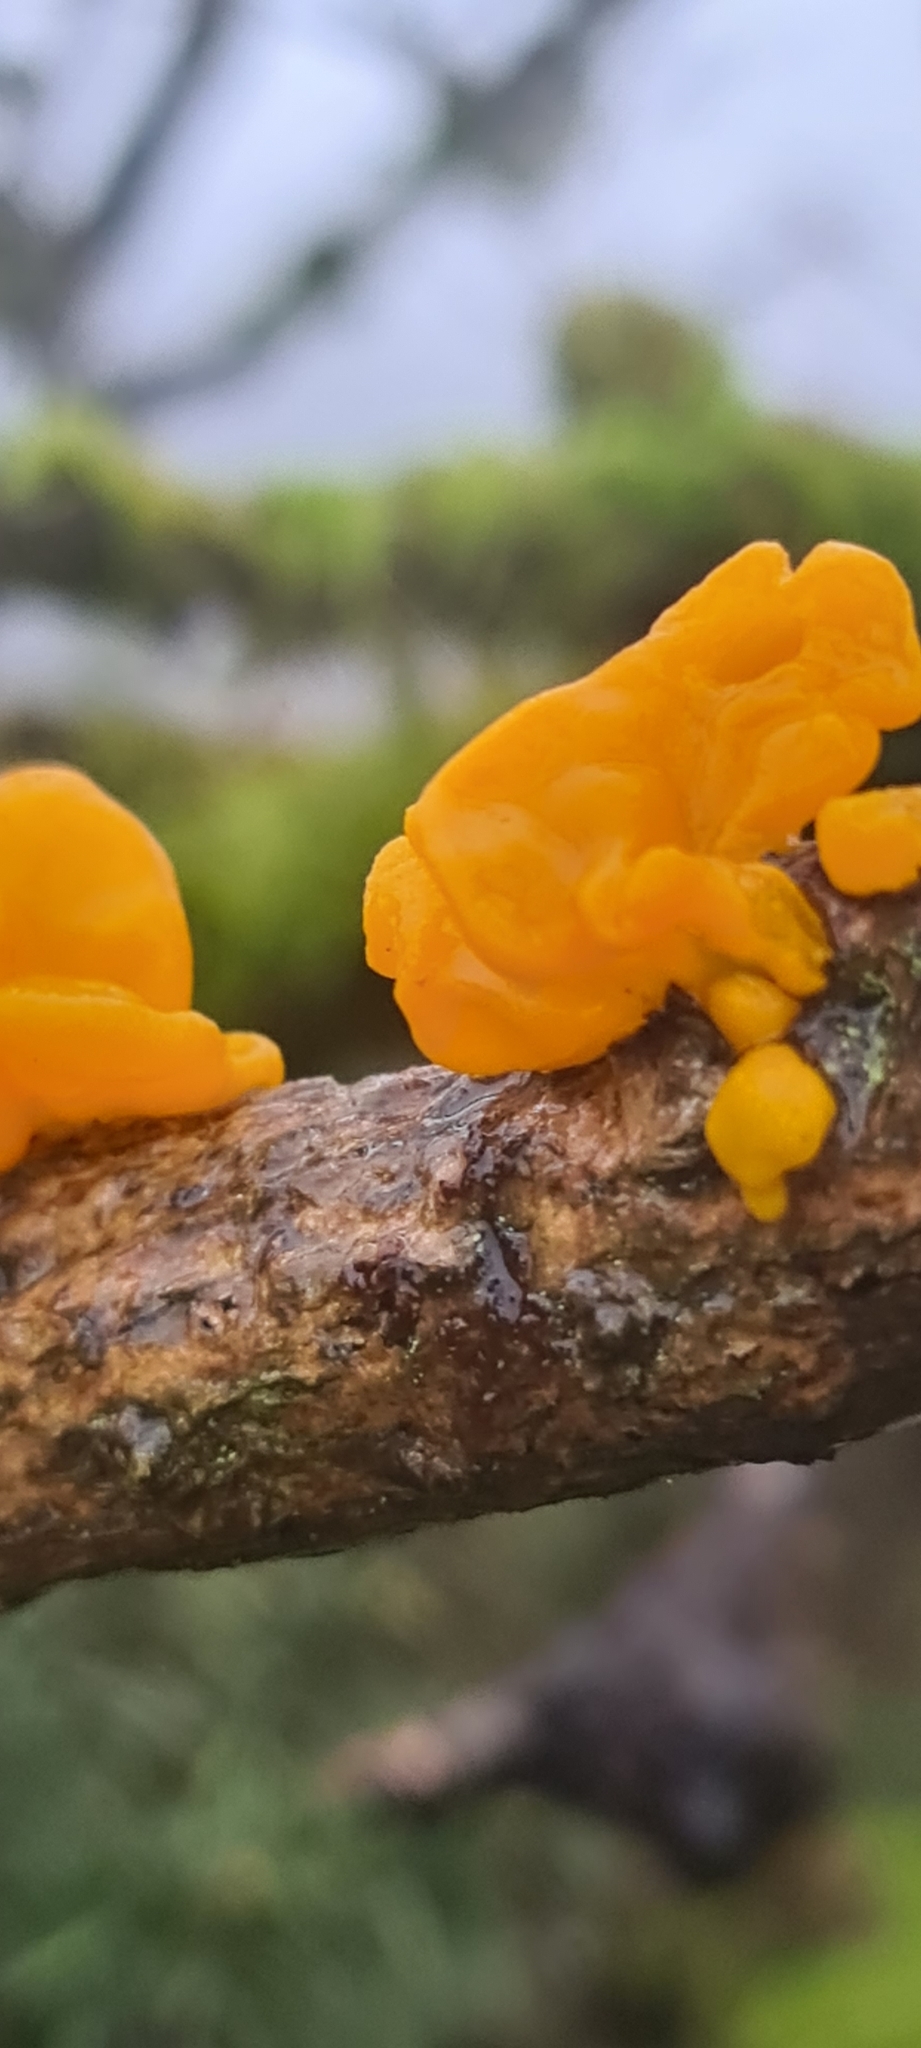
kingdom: Fungi
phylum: Basidiomycota
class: Tremellomycetes
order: Tremellales
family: Tremellaceae
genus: Tremella
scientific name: Tremella mesenterica
